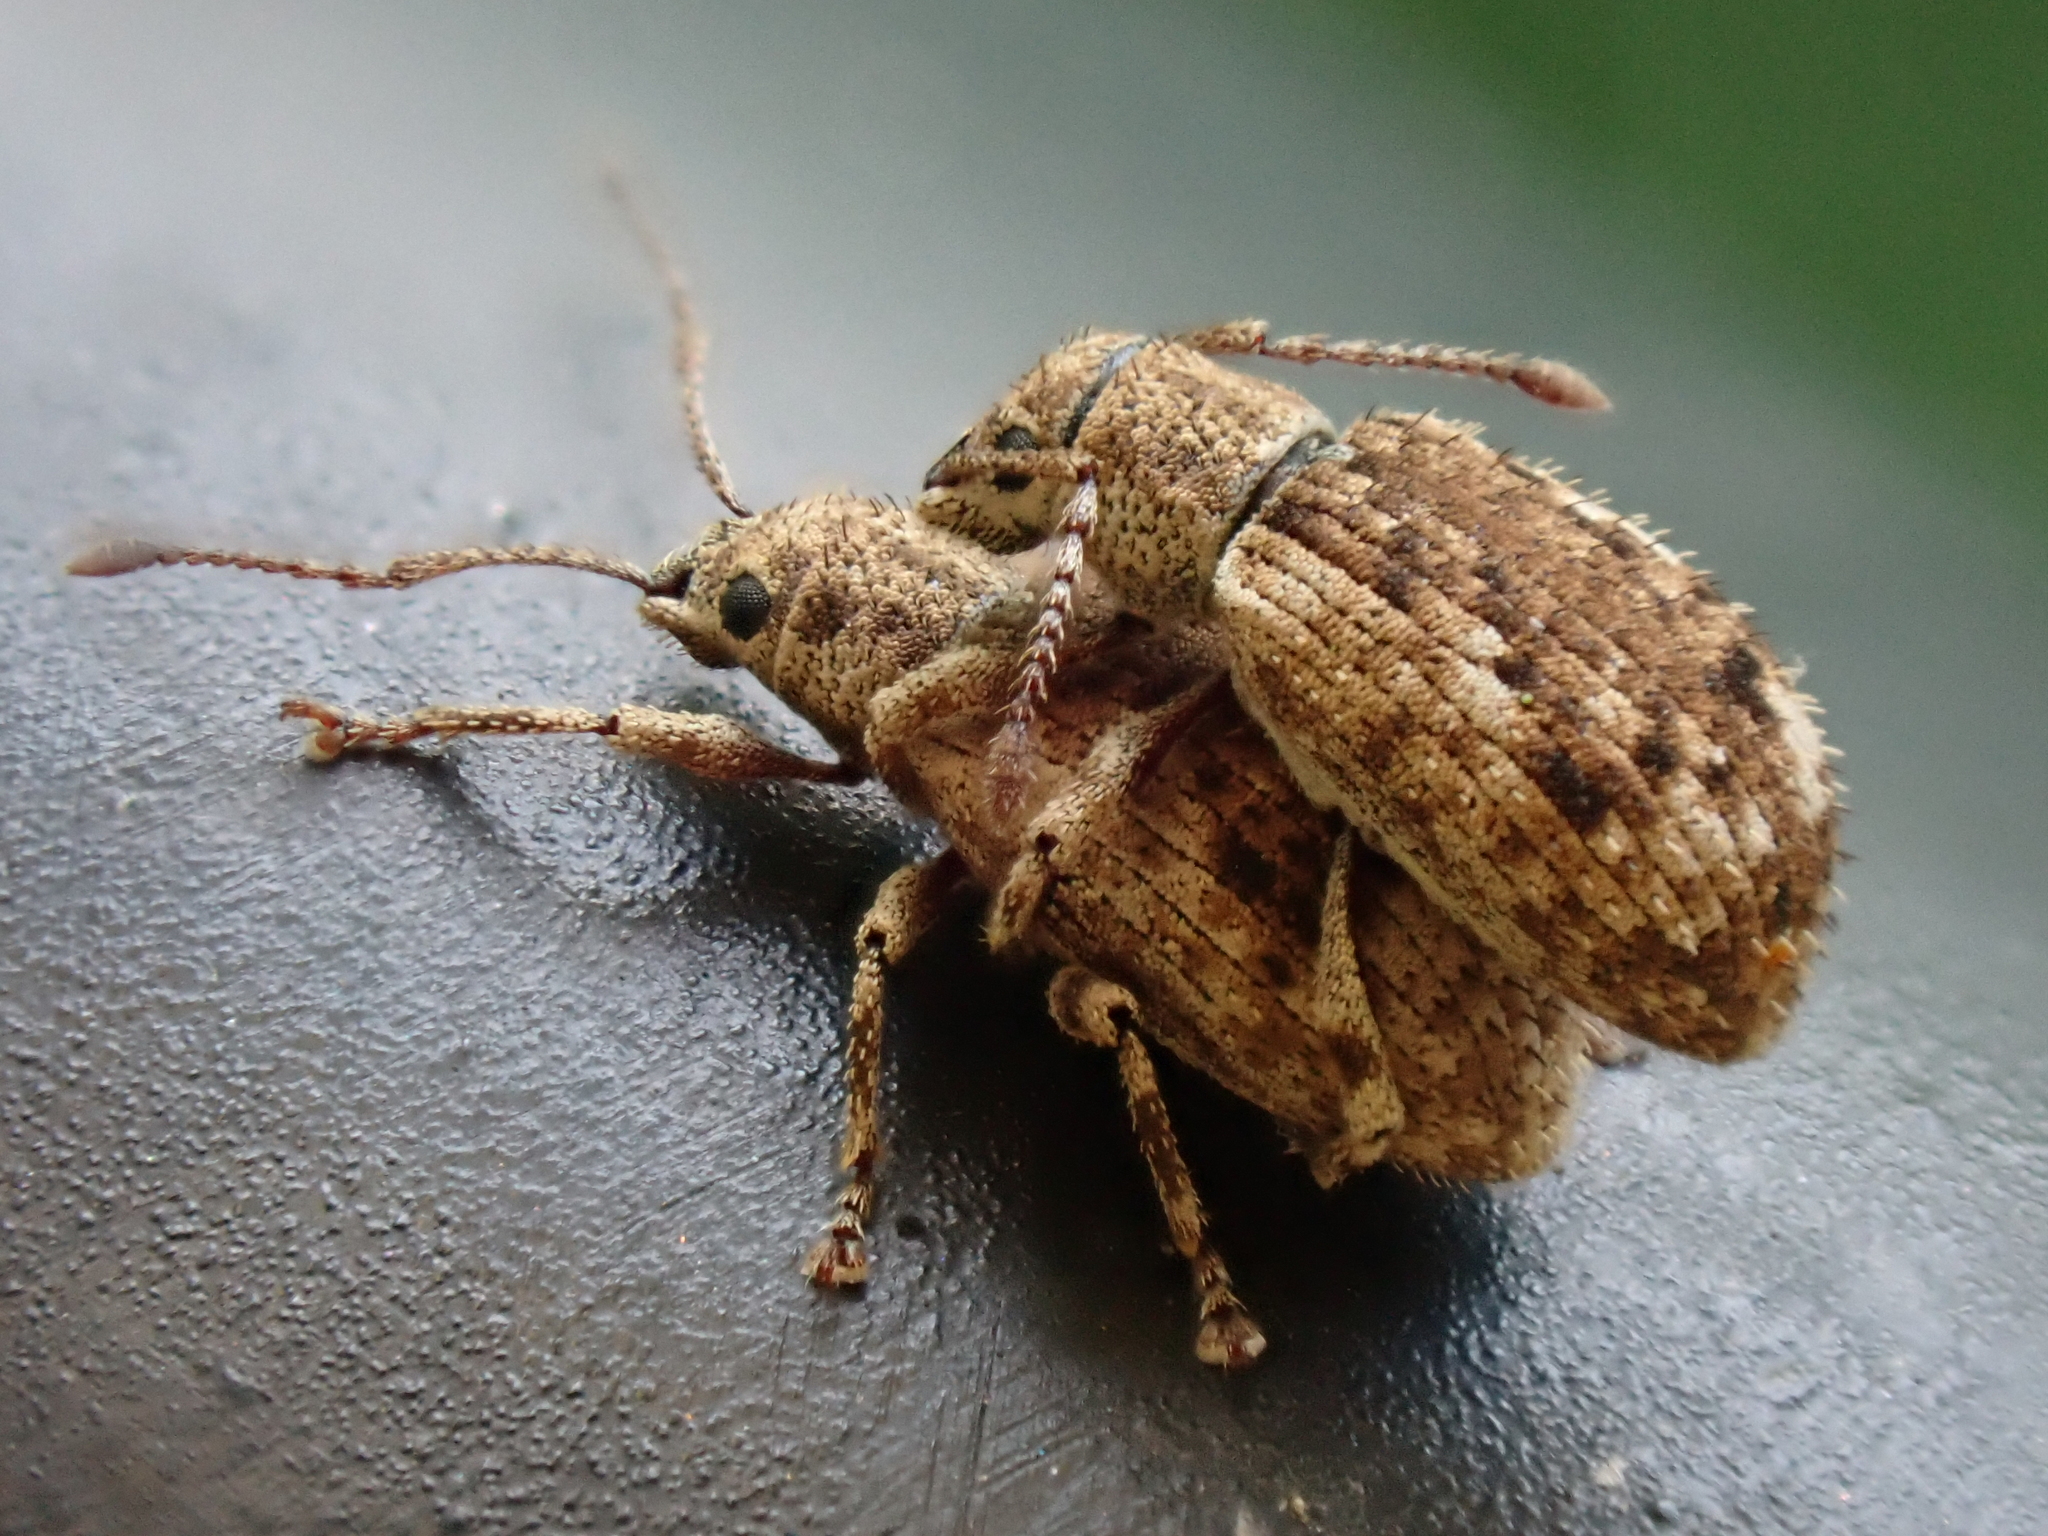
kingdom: Animalia
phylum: Arthropoda
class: Insecta
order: Coleoptera
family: Curculionidae
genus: Pseudoedophrys
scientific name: Pseudoedophrys hilleri
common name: Weevil
